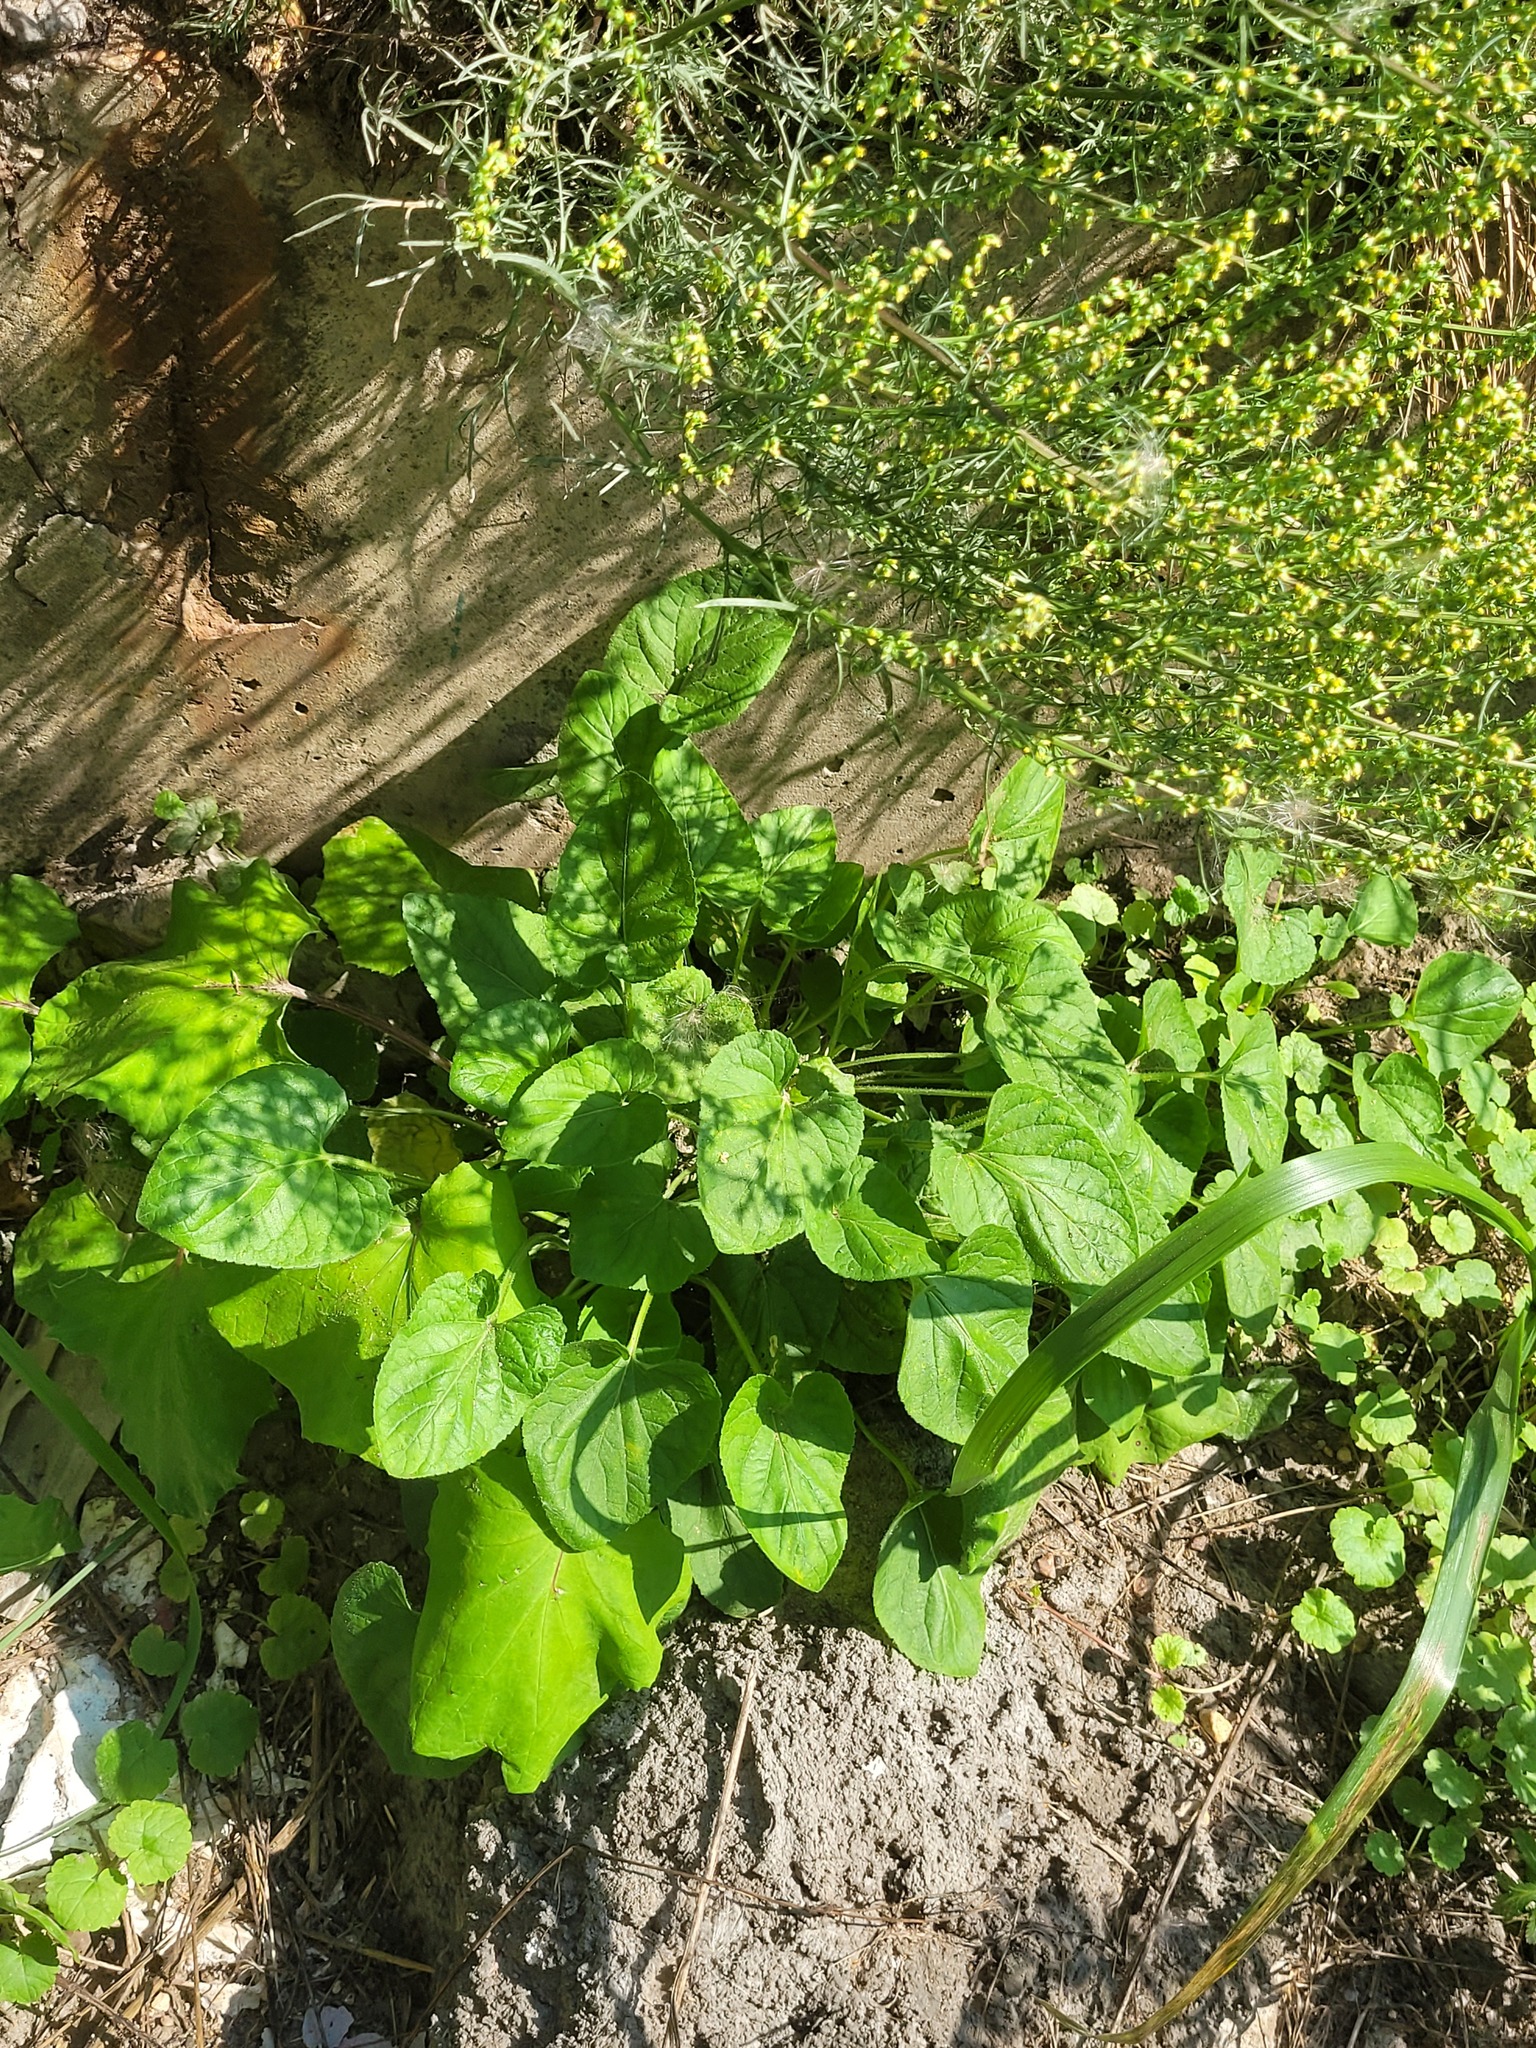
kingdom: Plantae
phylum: Tracheophyta
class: Magnoliopsida
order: Malpighiales
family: Violaceae
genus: Viola
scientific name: Viola hirta
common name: Hairy violet
